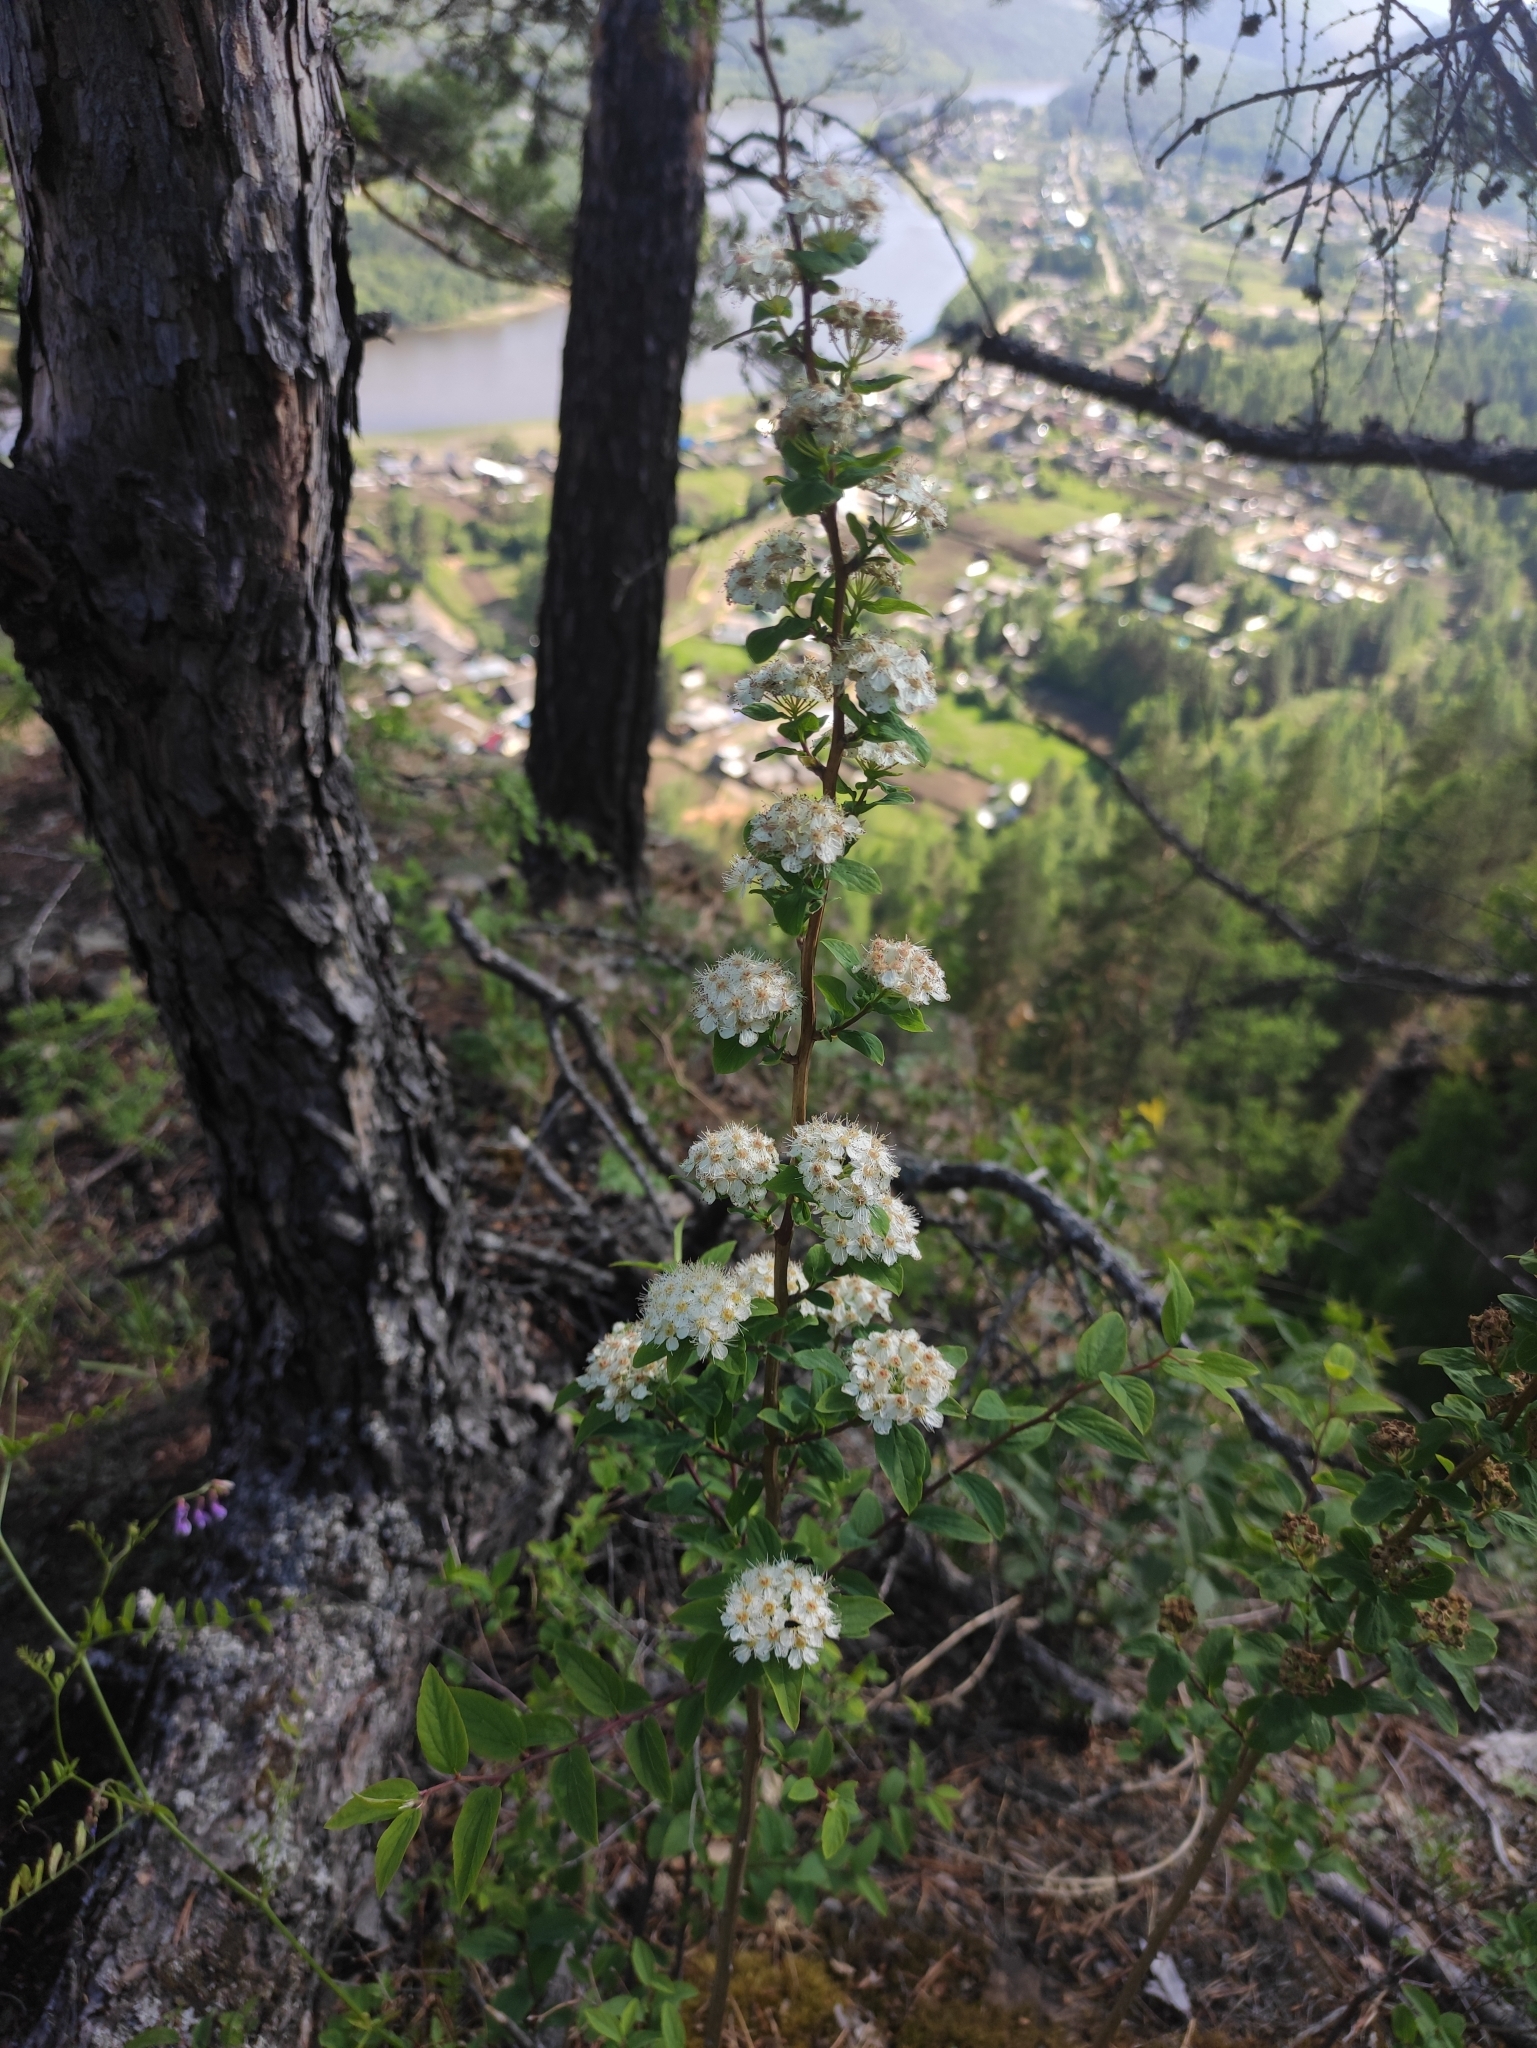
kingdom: Plantae
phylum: Tracheophyta
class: Magnoliopsida
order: Rosales
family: Rosaceae
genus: Spiraea
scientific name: Spiraea flexuosa
